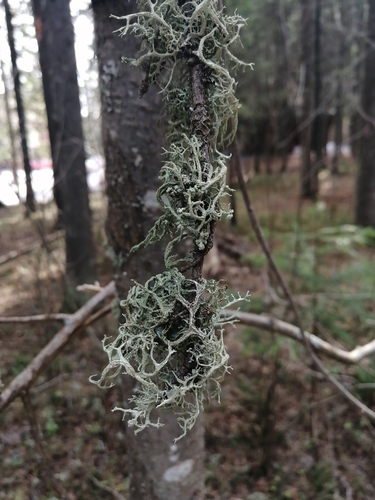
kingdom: Fungi
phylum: Ascomycota
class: Lecanoromycetes
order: Lecanorales
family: Parmeliaceae
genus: Evernia
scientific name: Evernia mesomorpha
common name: Boreal oak moss lichen
